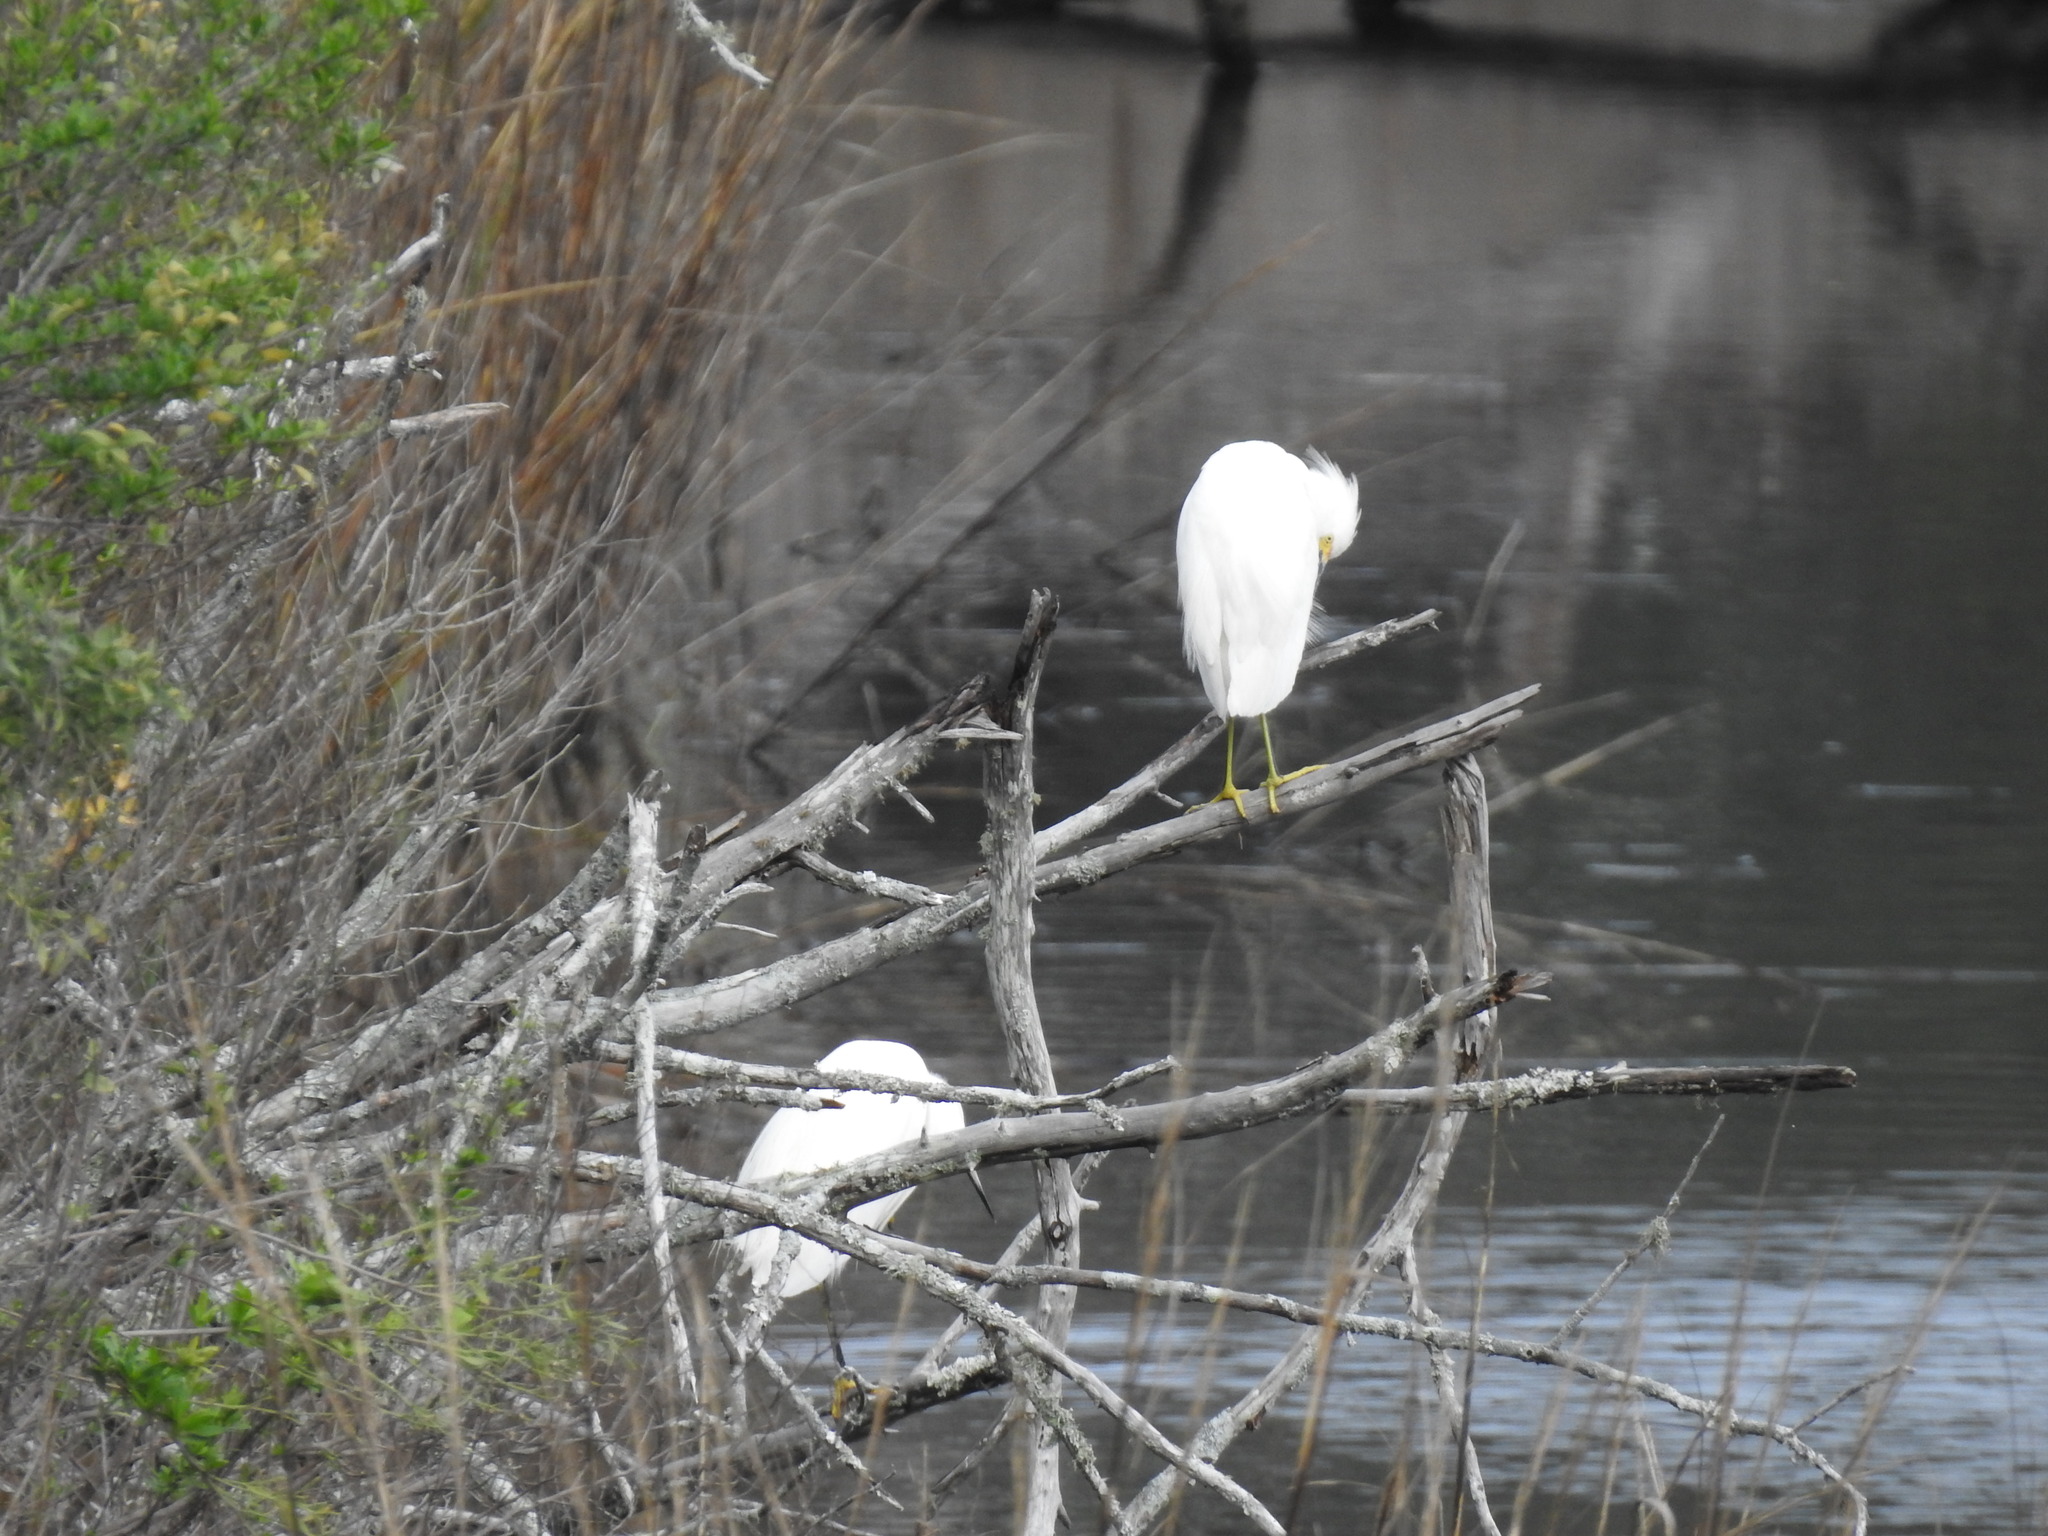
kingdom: Animalia
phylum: Chordata
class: Aves
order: Pelecaniformes
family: Ardeidae
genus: Egretta
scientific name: Egretta thula
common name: Snowy egret
